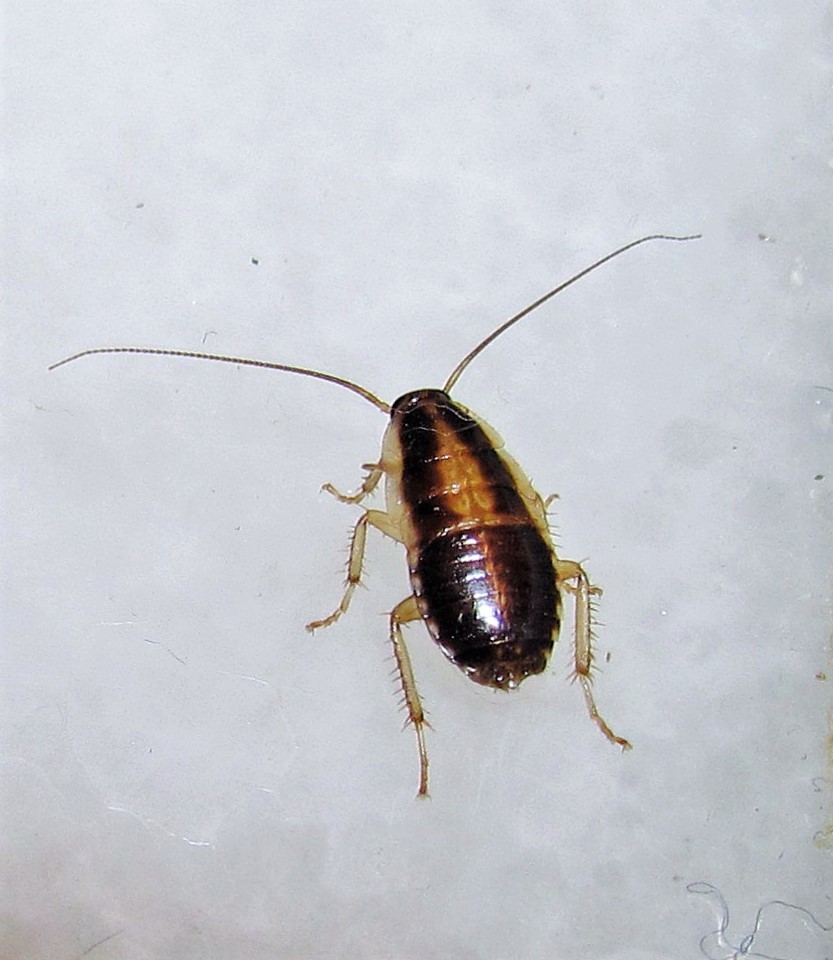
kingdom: Animalia
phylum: Arthropoda
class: Insecta
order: Blattodea
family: Ectobiidae
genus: Blattella
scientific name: Blattella germanica
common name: German cockroach
